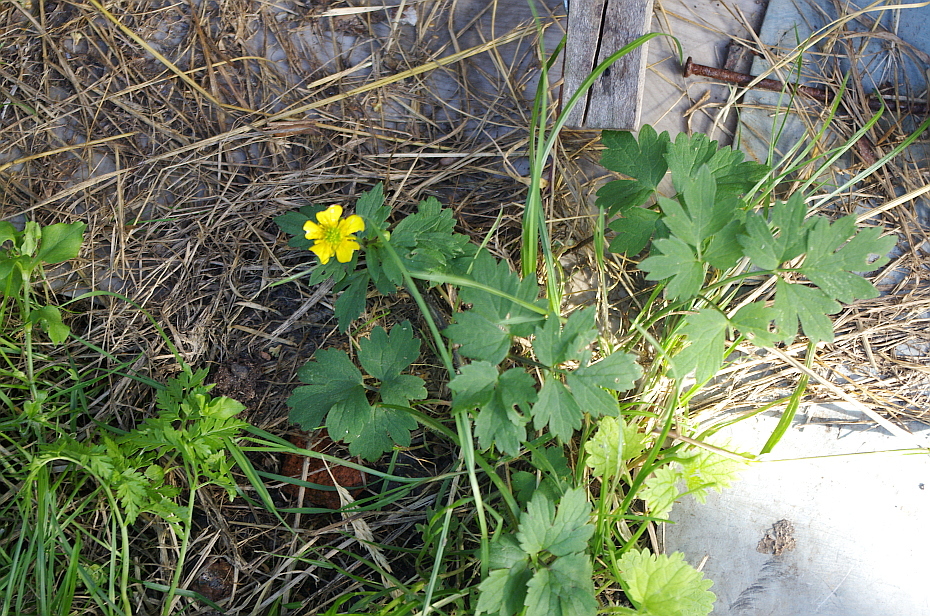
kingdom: Plantae
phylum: Tracheophyta
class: Magnoliopsida
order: Ranunculales
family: Ranunculaceae
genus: Ranunculus
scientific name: Ranunculus repens
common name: Creeping buttercup
